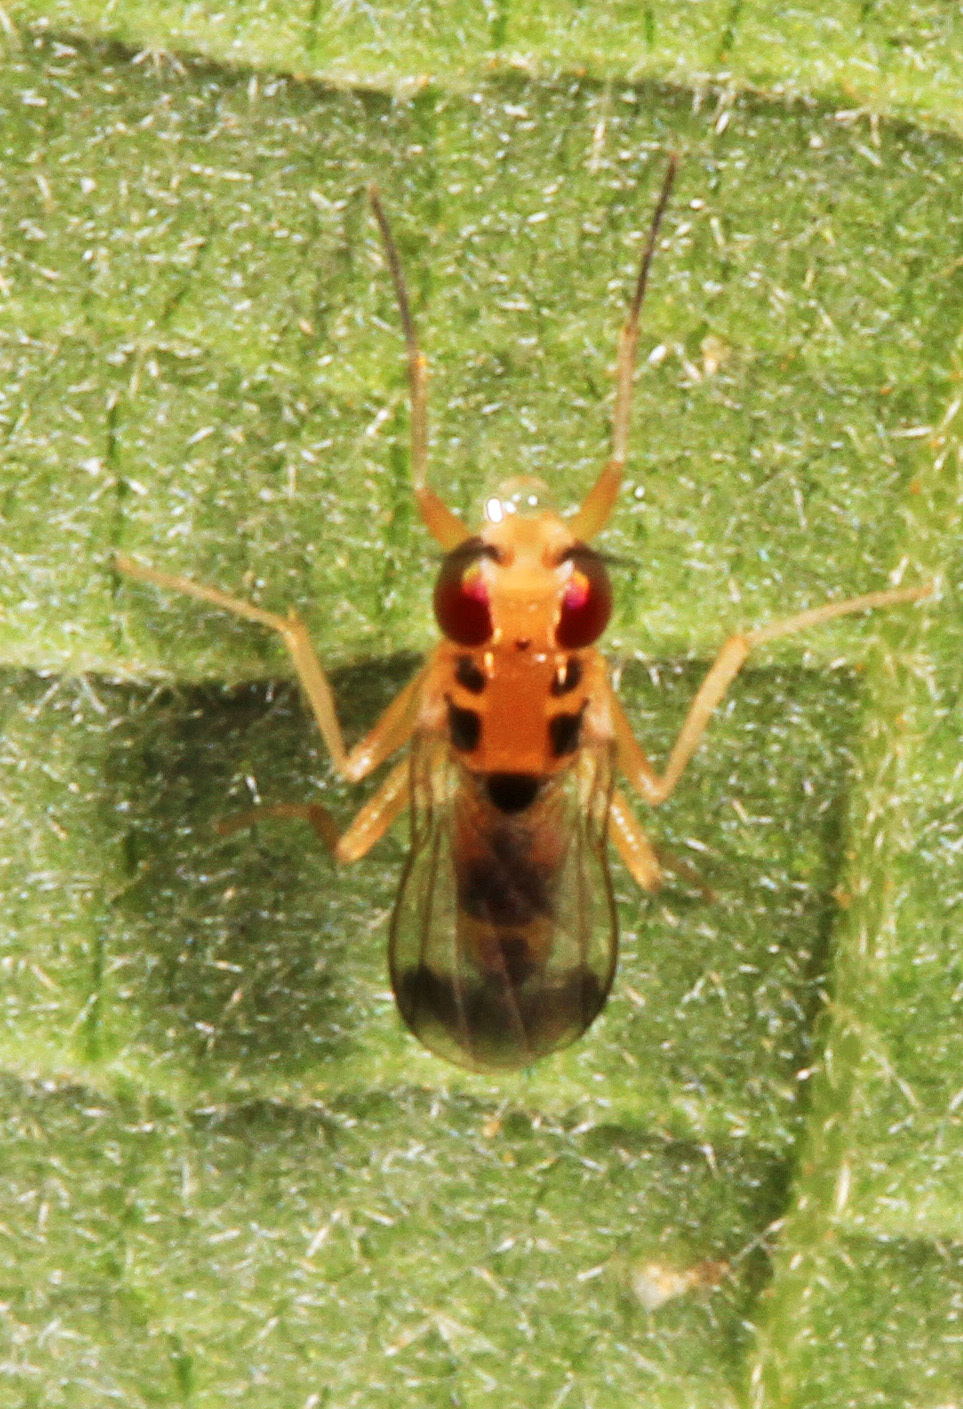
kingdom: Animalia
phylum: Arthropoda
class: Insecta
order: Diptera
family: Clusiidae
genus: Sobarocephala
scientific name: Sobarocephala quadrimaculata
